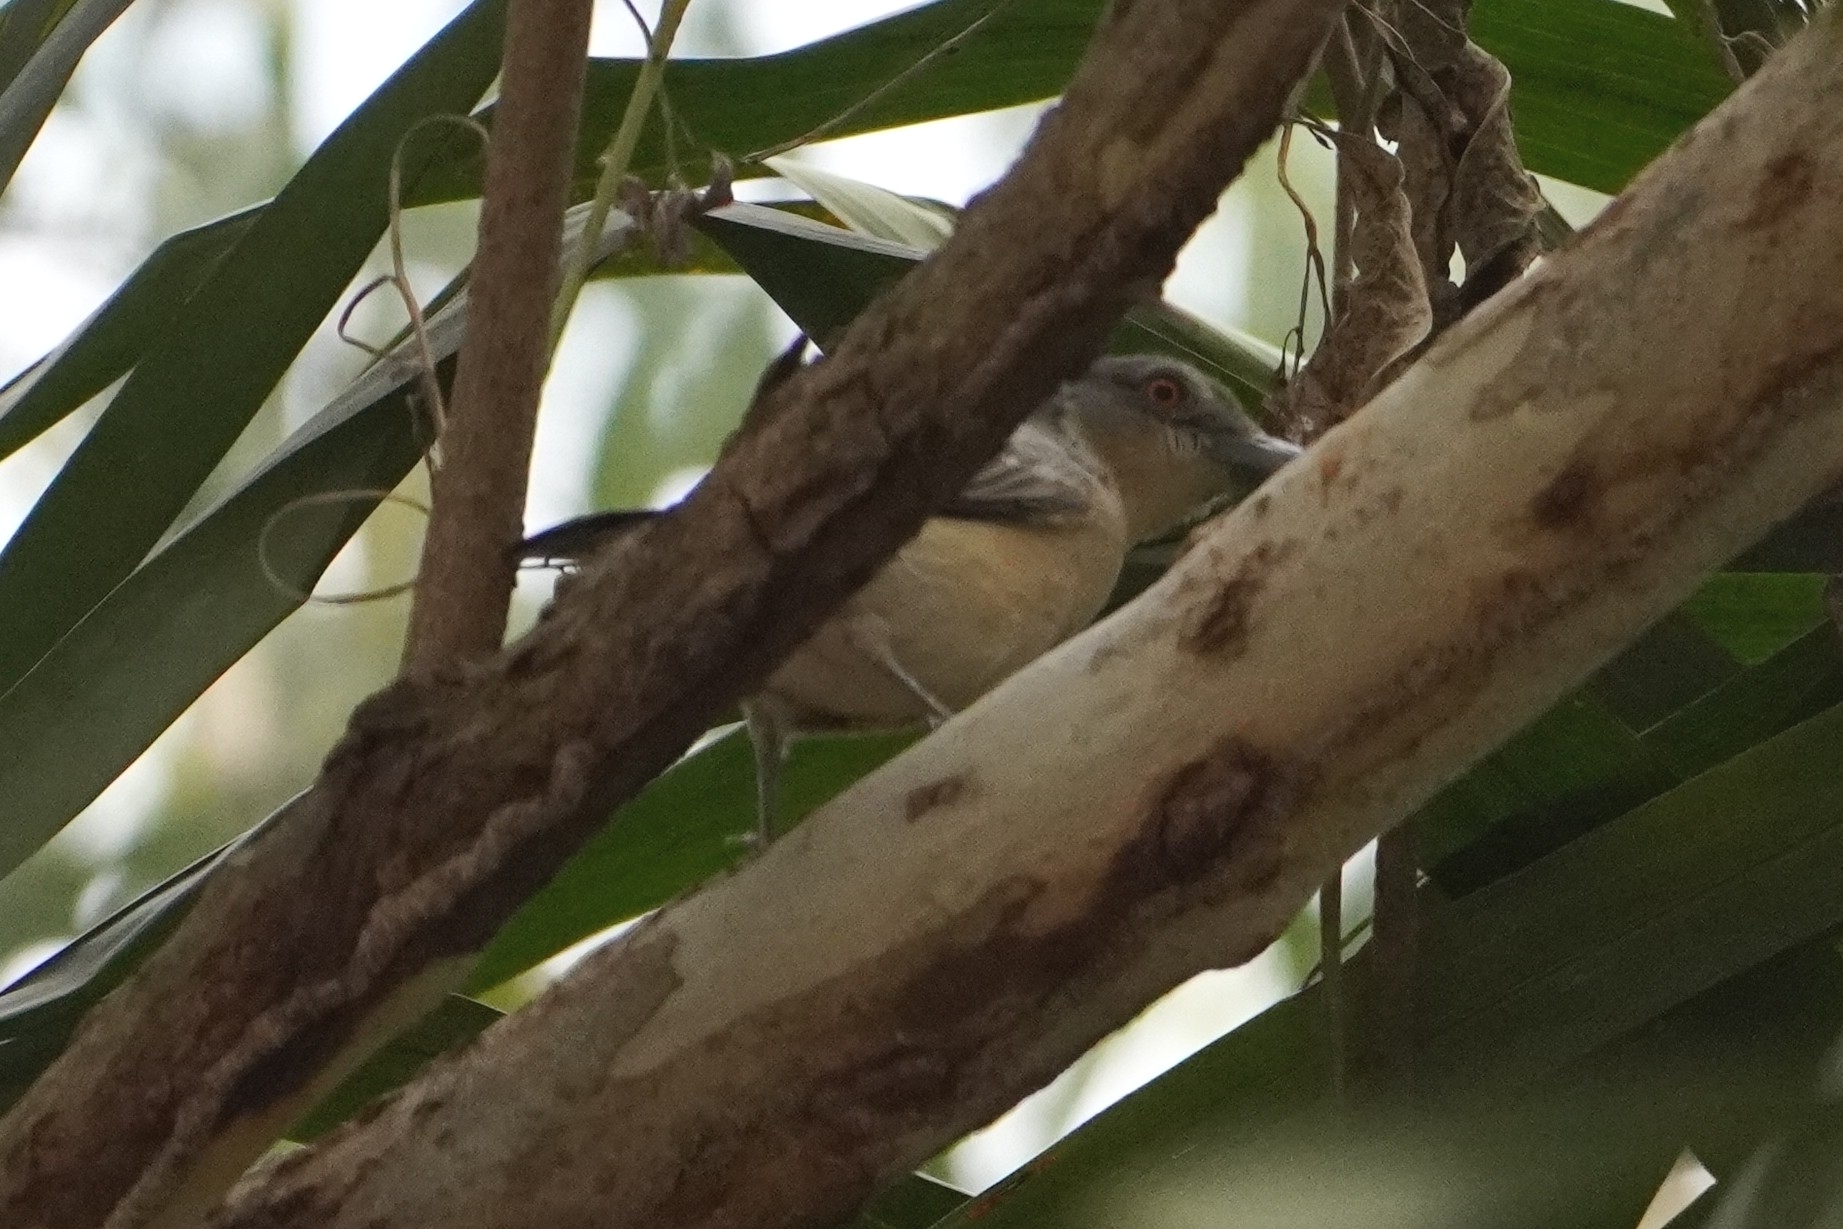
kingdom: Animalia
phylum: Chordata
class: Aves
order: Passeriformes
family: Malaconotidae
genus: Dryoscopus
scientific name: Dryoscopus gambensis
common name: Northern puffback
